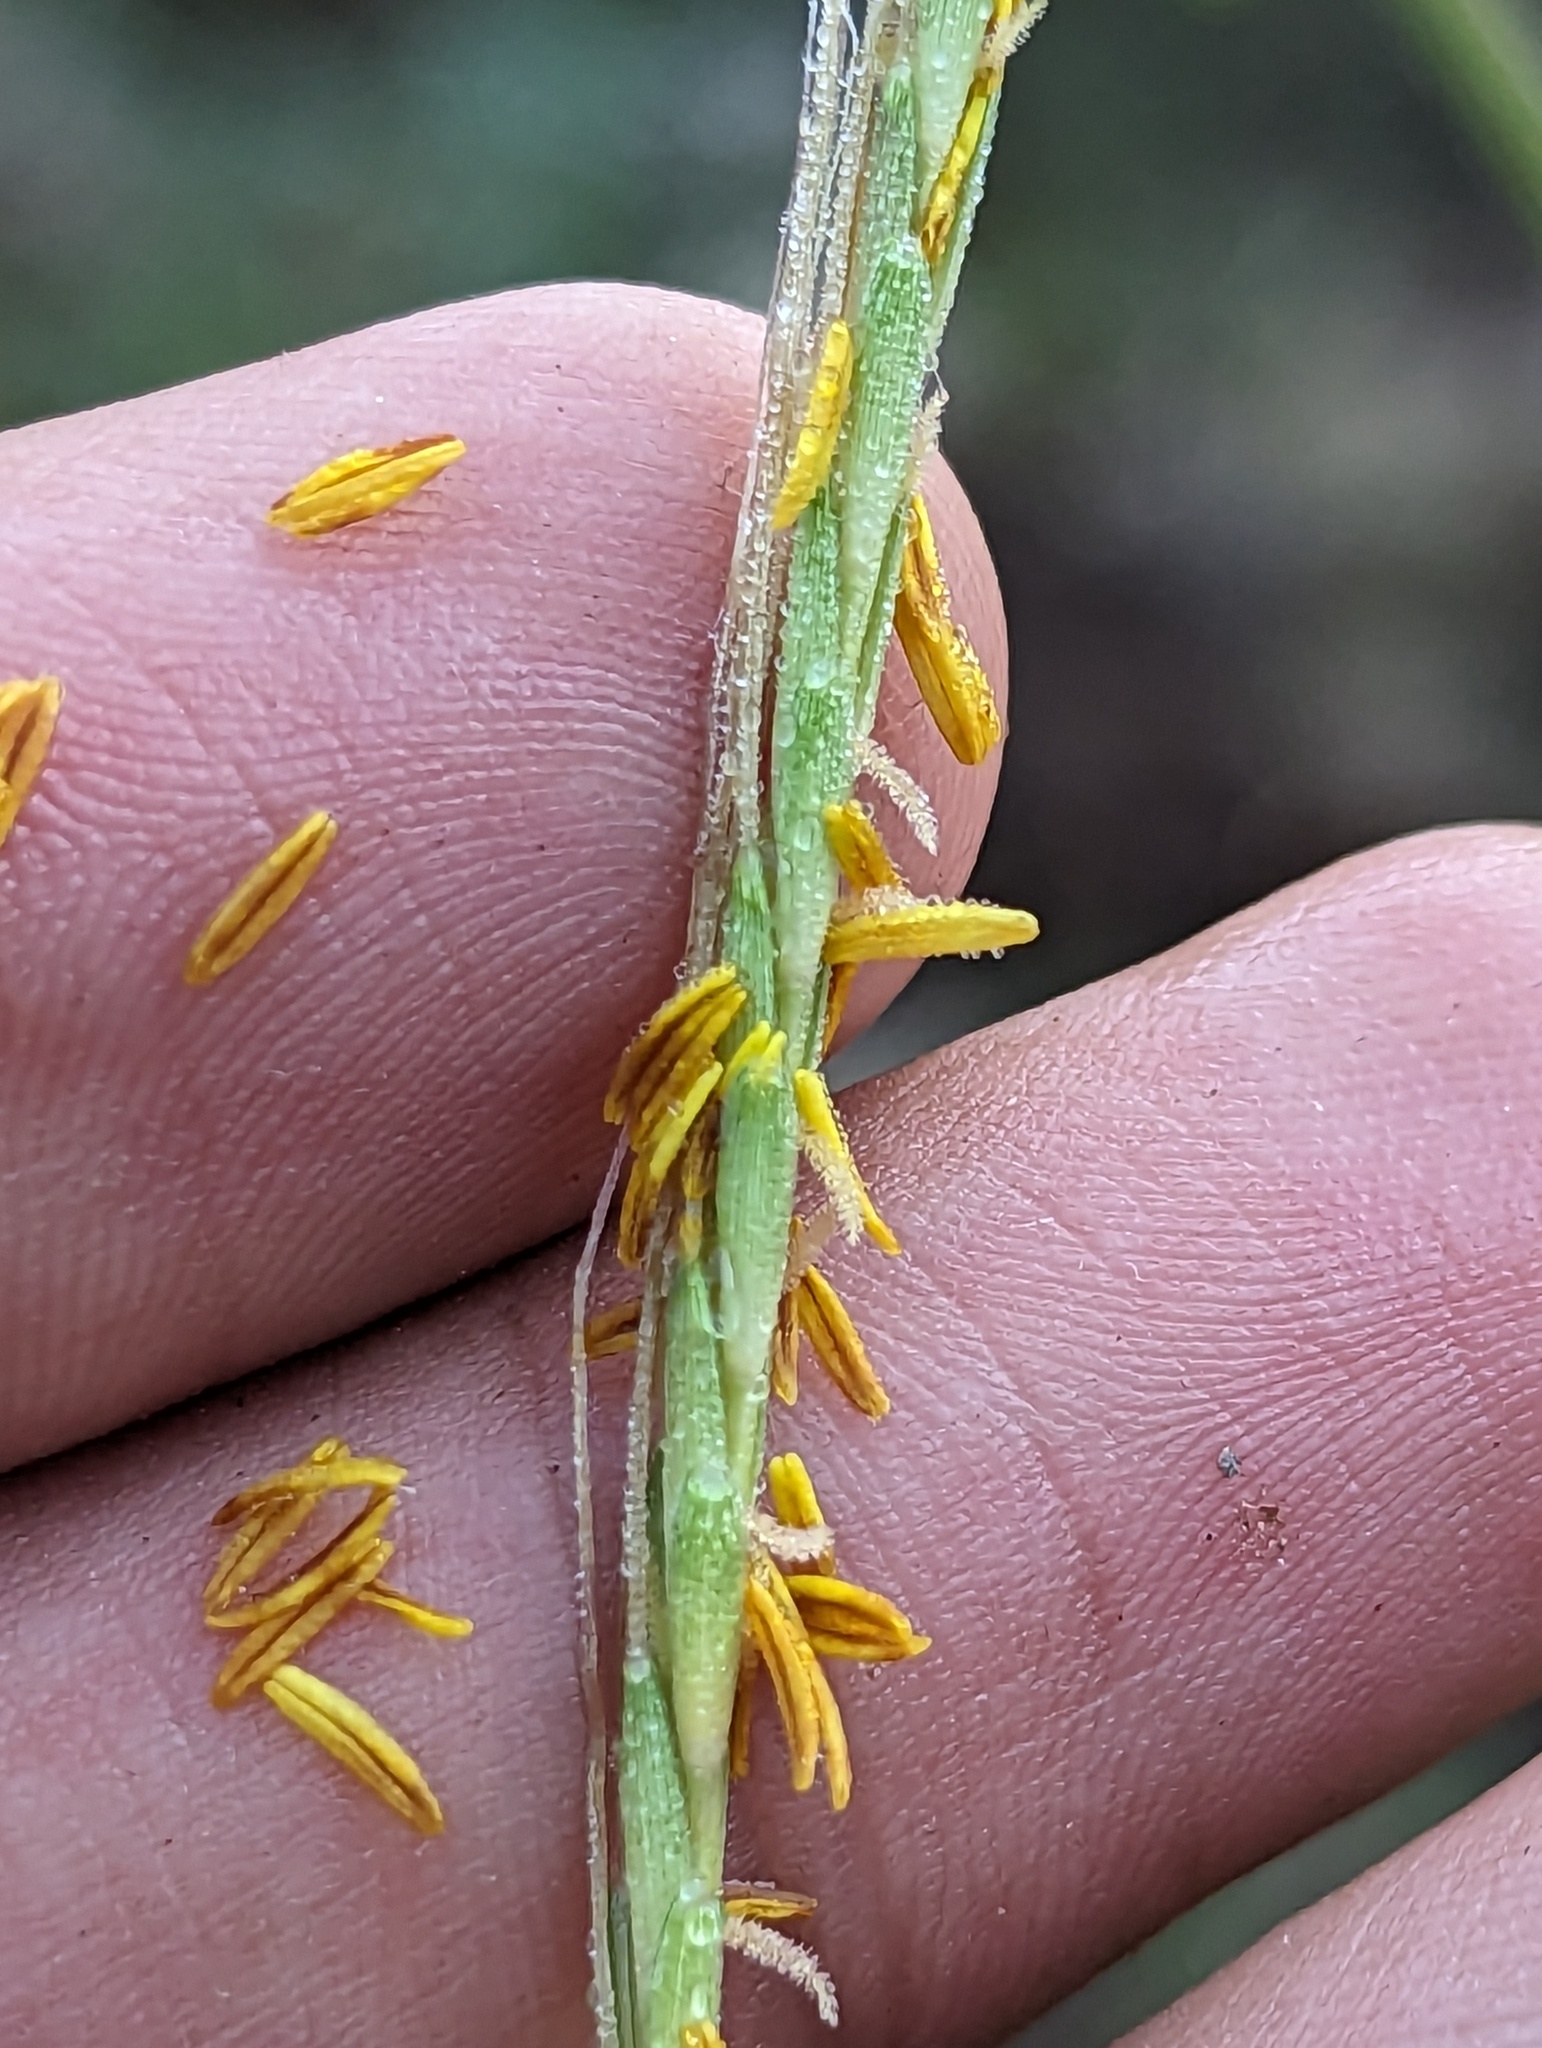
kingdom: Plantae
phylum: Tracheophyta
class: Liliopsida
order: Poales
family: Poaceae
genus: Heteropogon
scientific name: Heteropogon contortus
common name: Tanglehead
